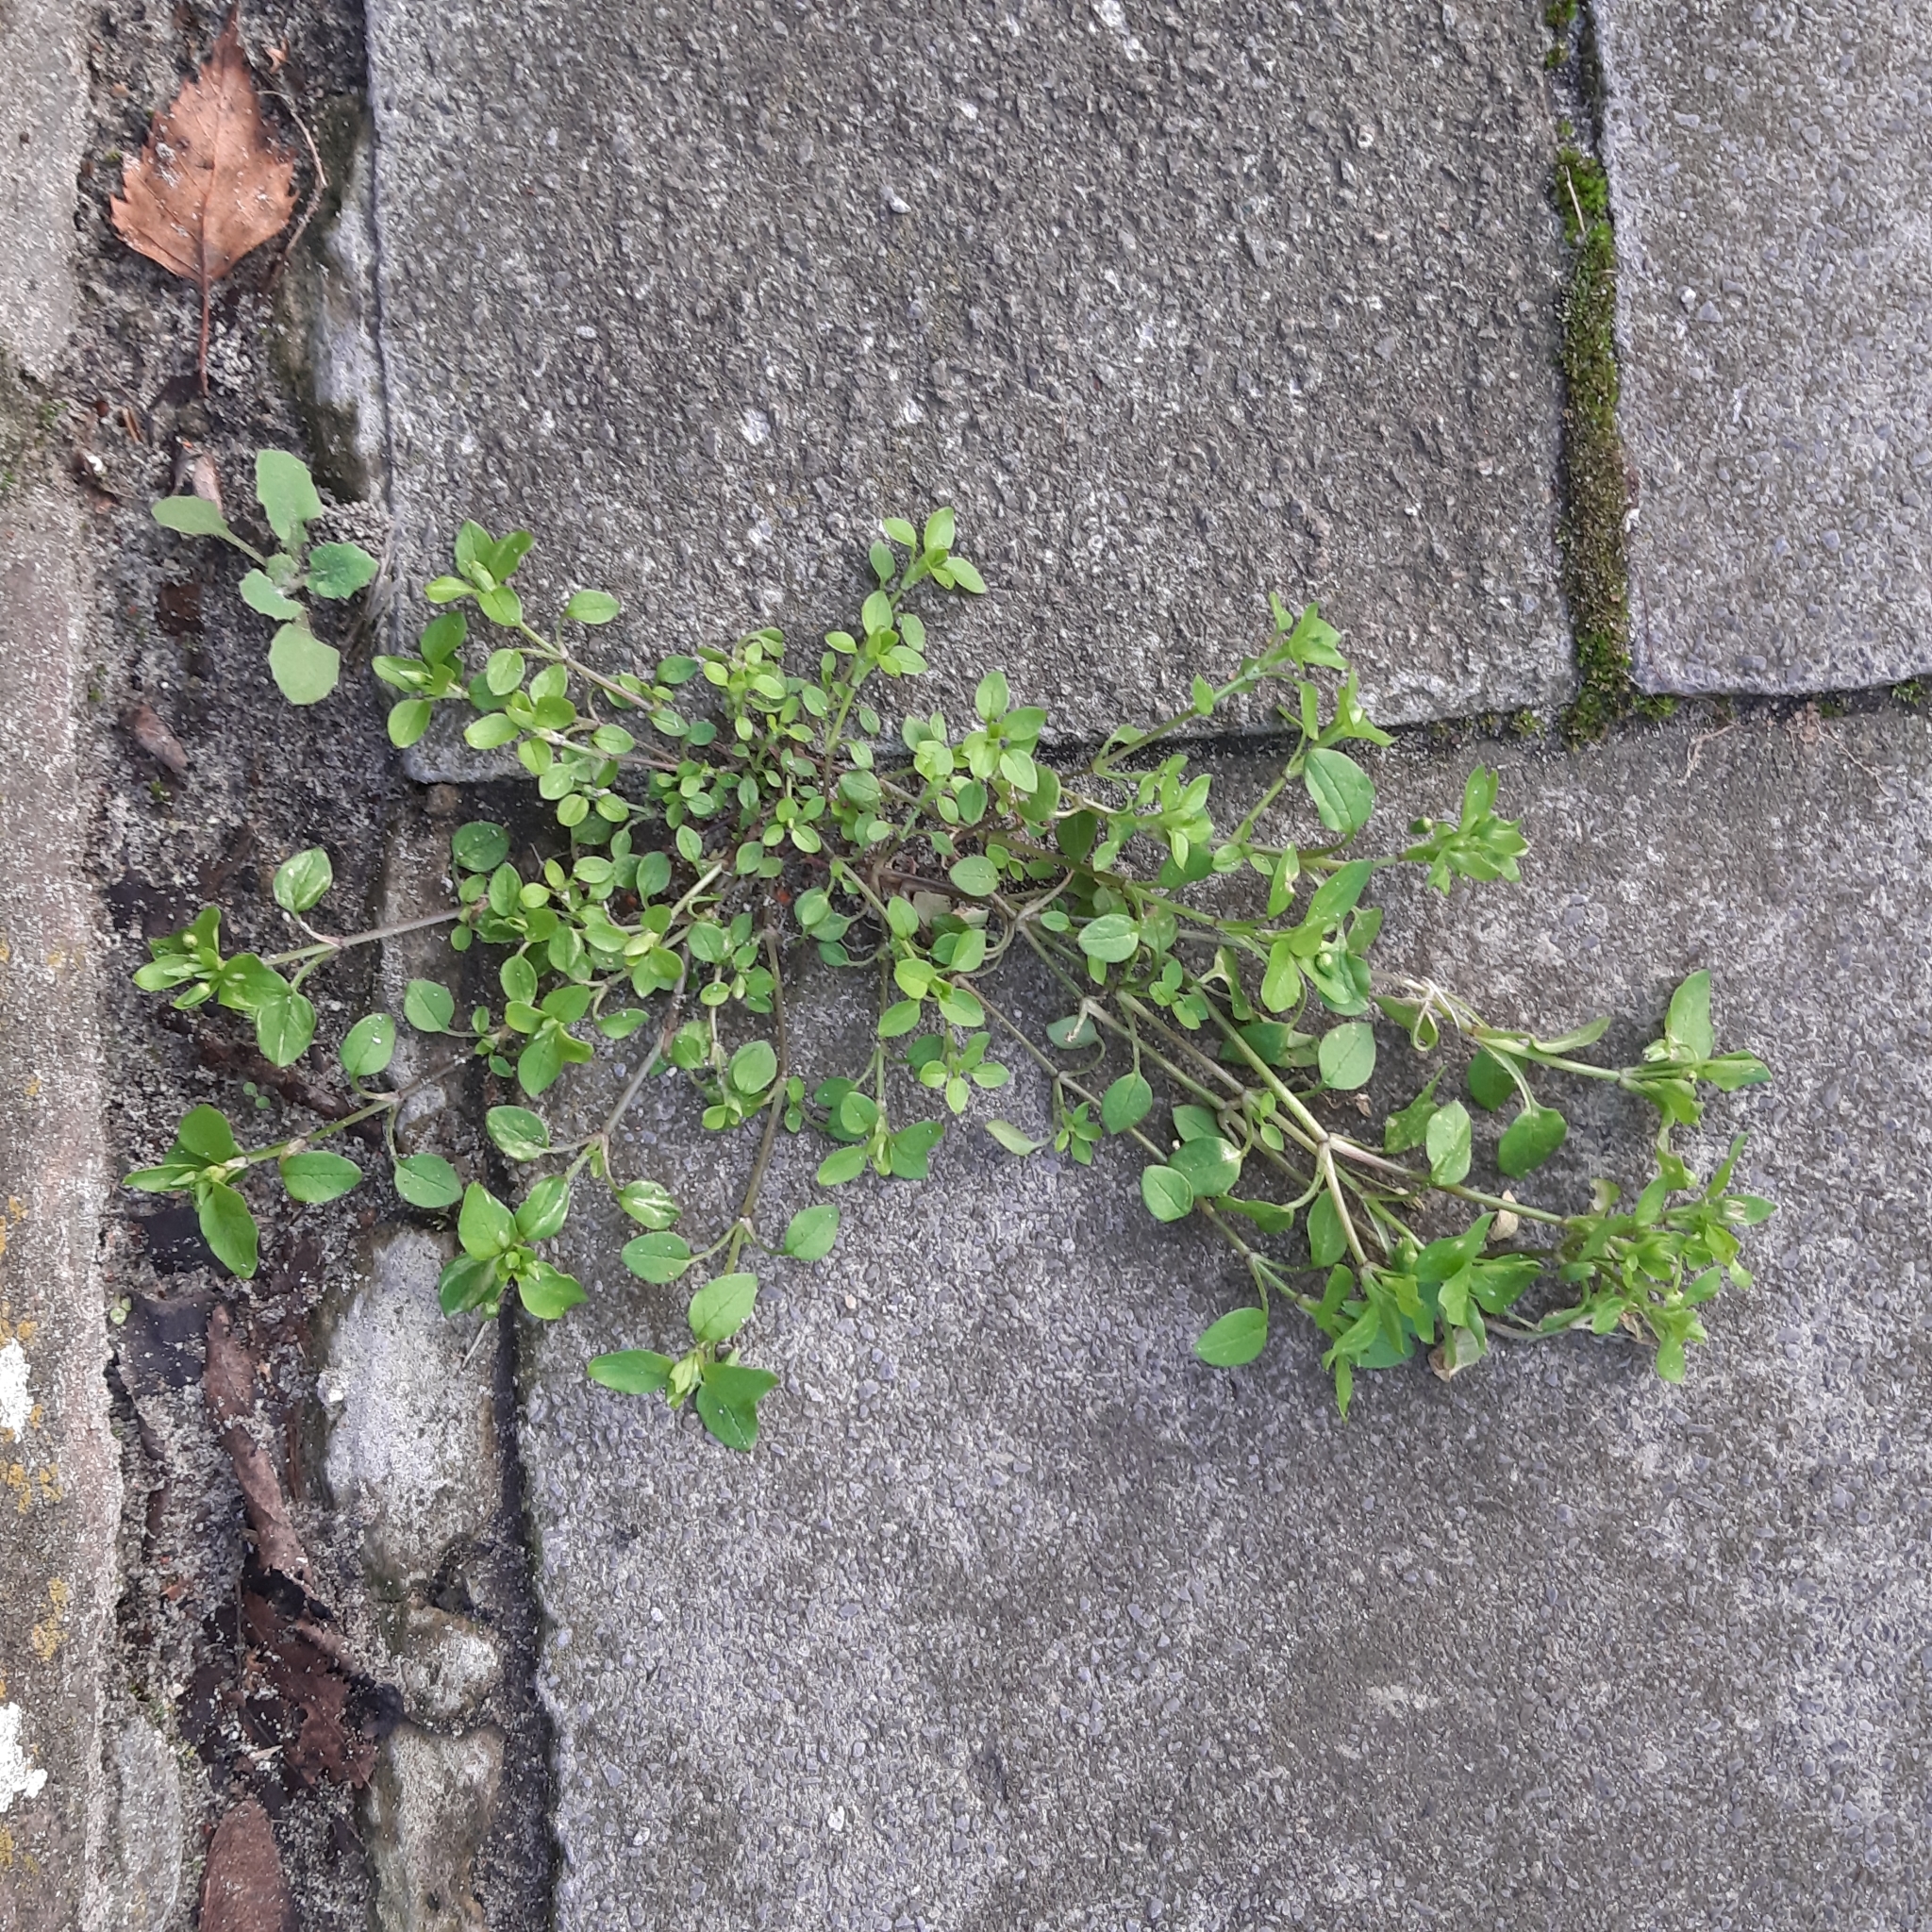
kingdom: Plantae
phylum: Tracheophyta
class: Magnoliopsida
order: Caryophyllales
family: Caryophyllaceae
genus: Stellaria
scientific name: Stellaria media
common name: Common chickweed
